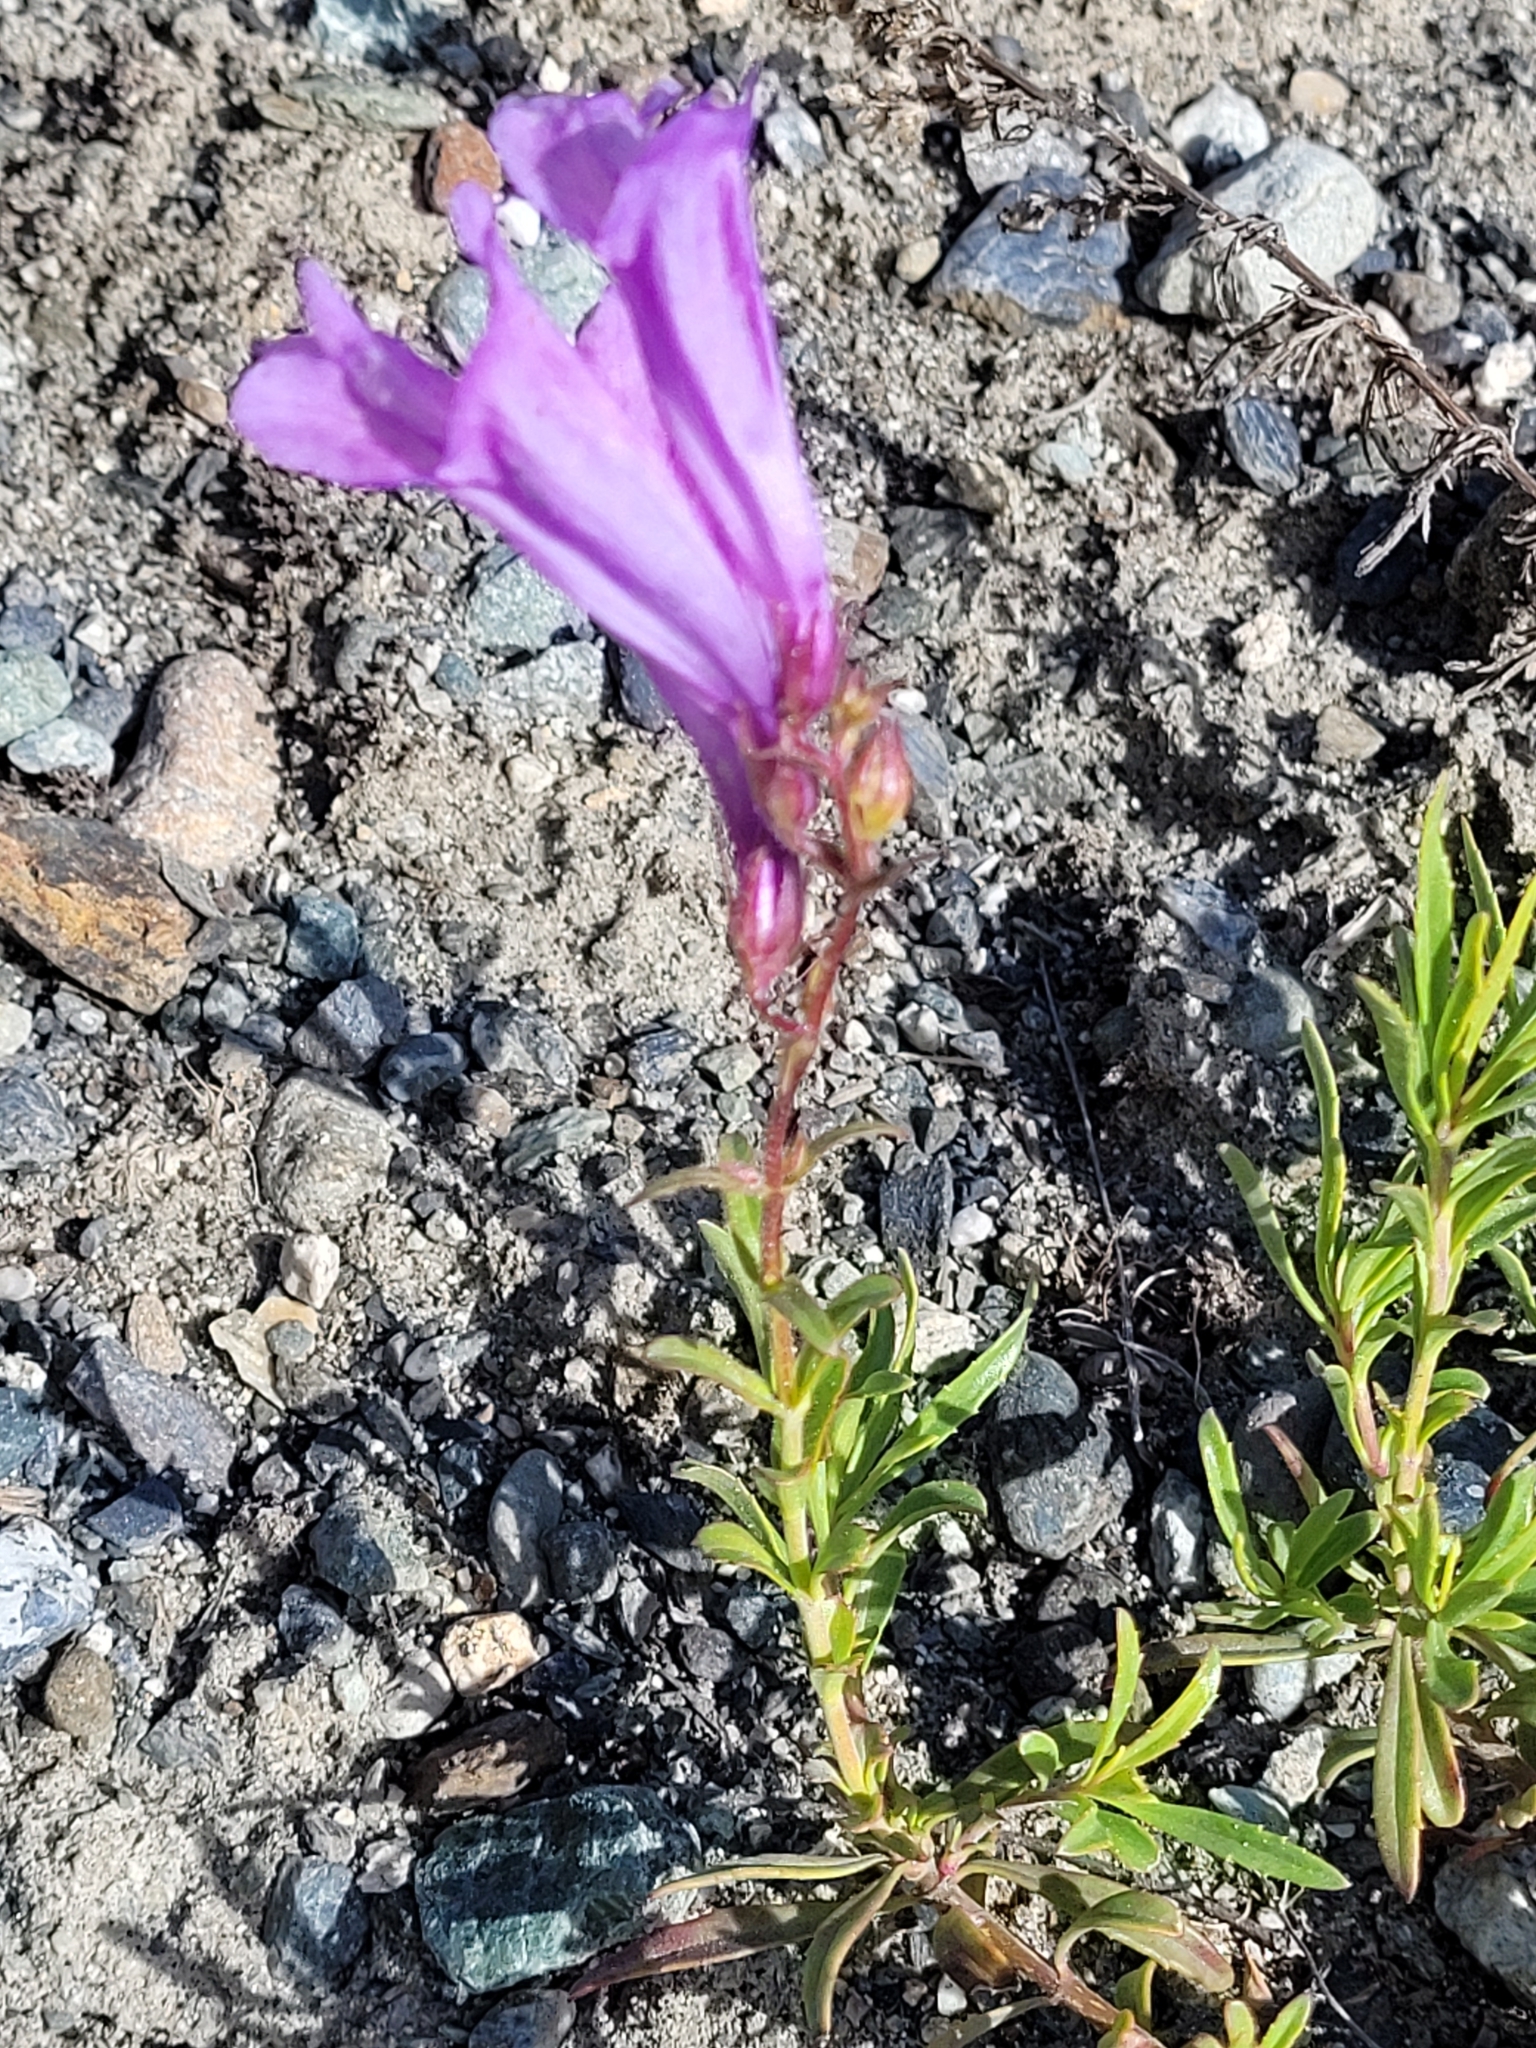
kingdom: Plantae
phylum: Tracheophyta
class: Magnoliopsida
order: Lamiales
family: Plantaginaceae
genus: Penstemon
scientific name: Penstemon fruticosus
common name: Bush penstemon
